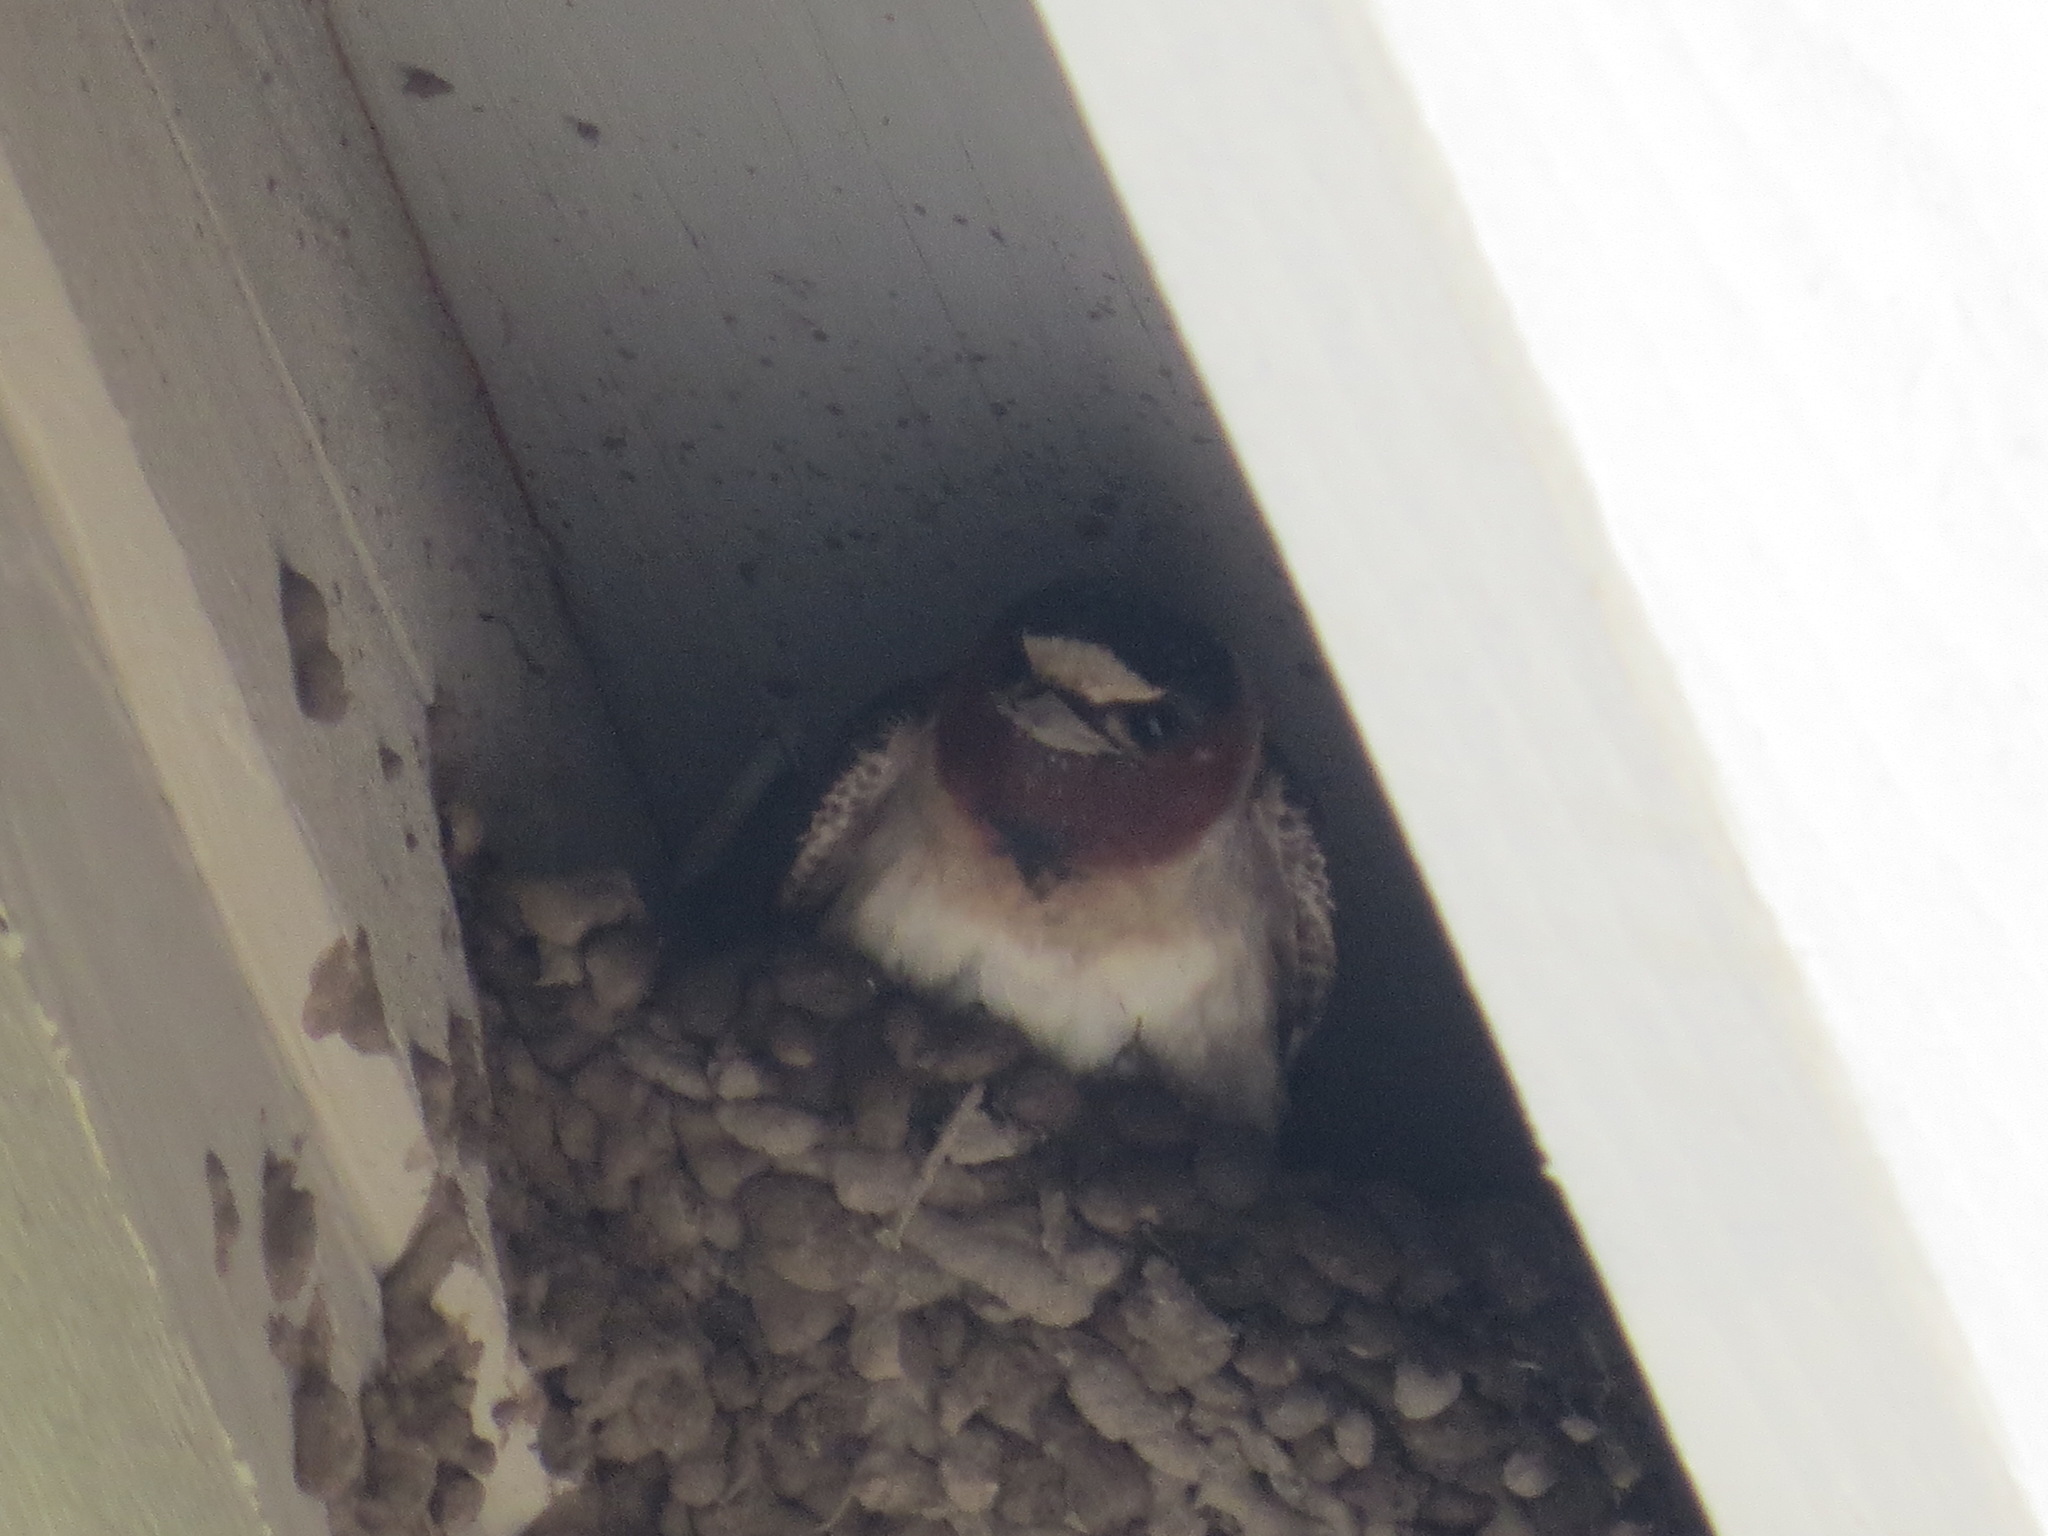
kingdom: Animalia
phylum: Chordata
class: Aves
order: Passeriformes
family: Hirundinidae
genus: Petrochelidon
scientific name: Petrochelidon pyrrhonota
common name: American cliff swallow
